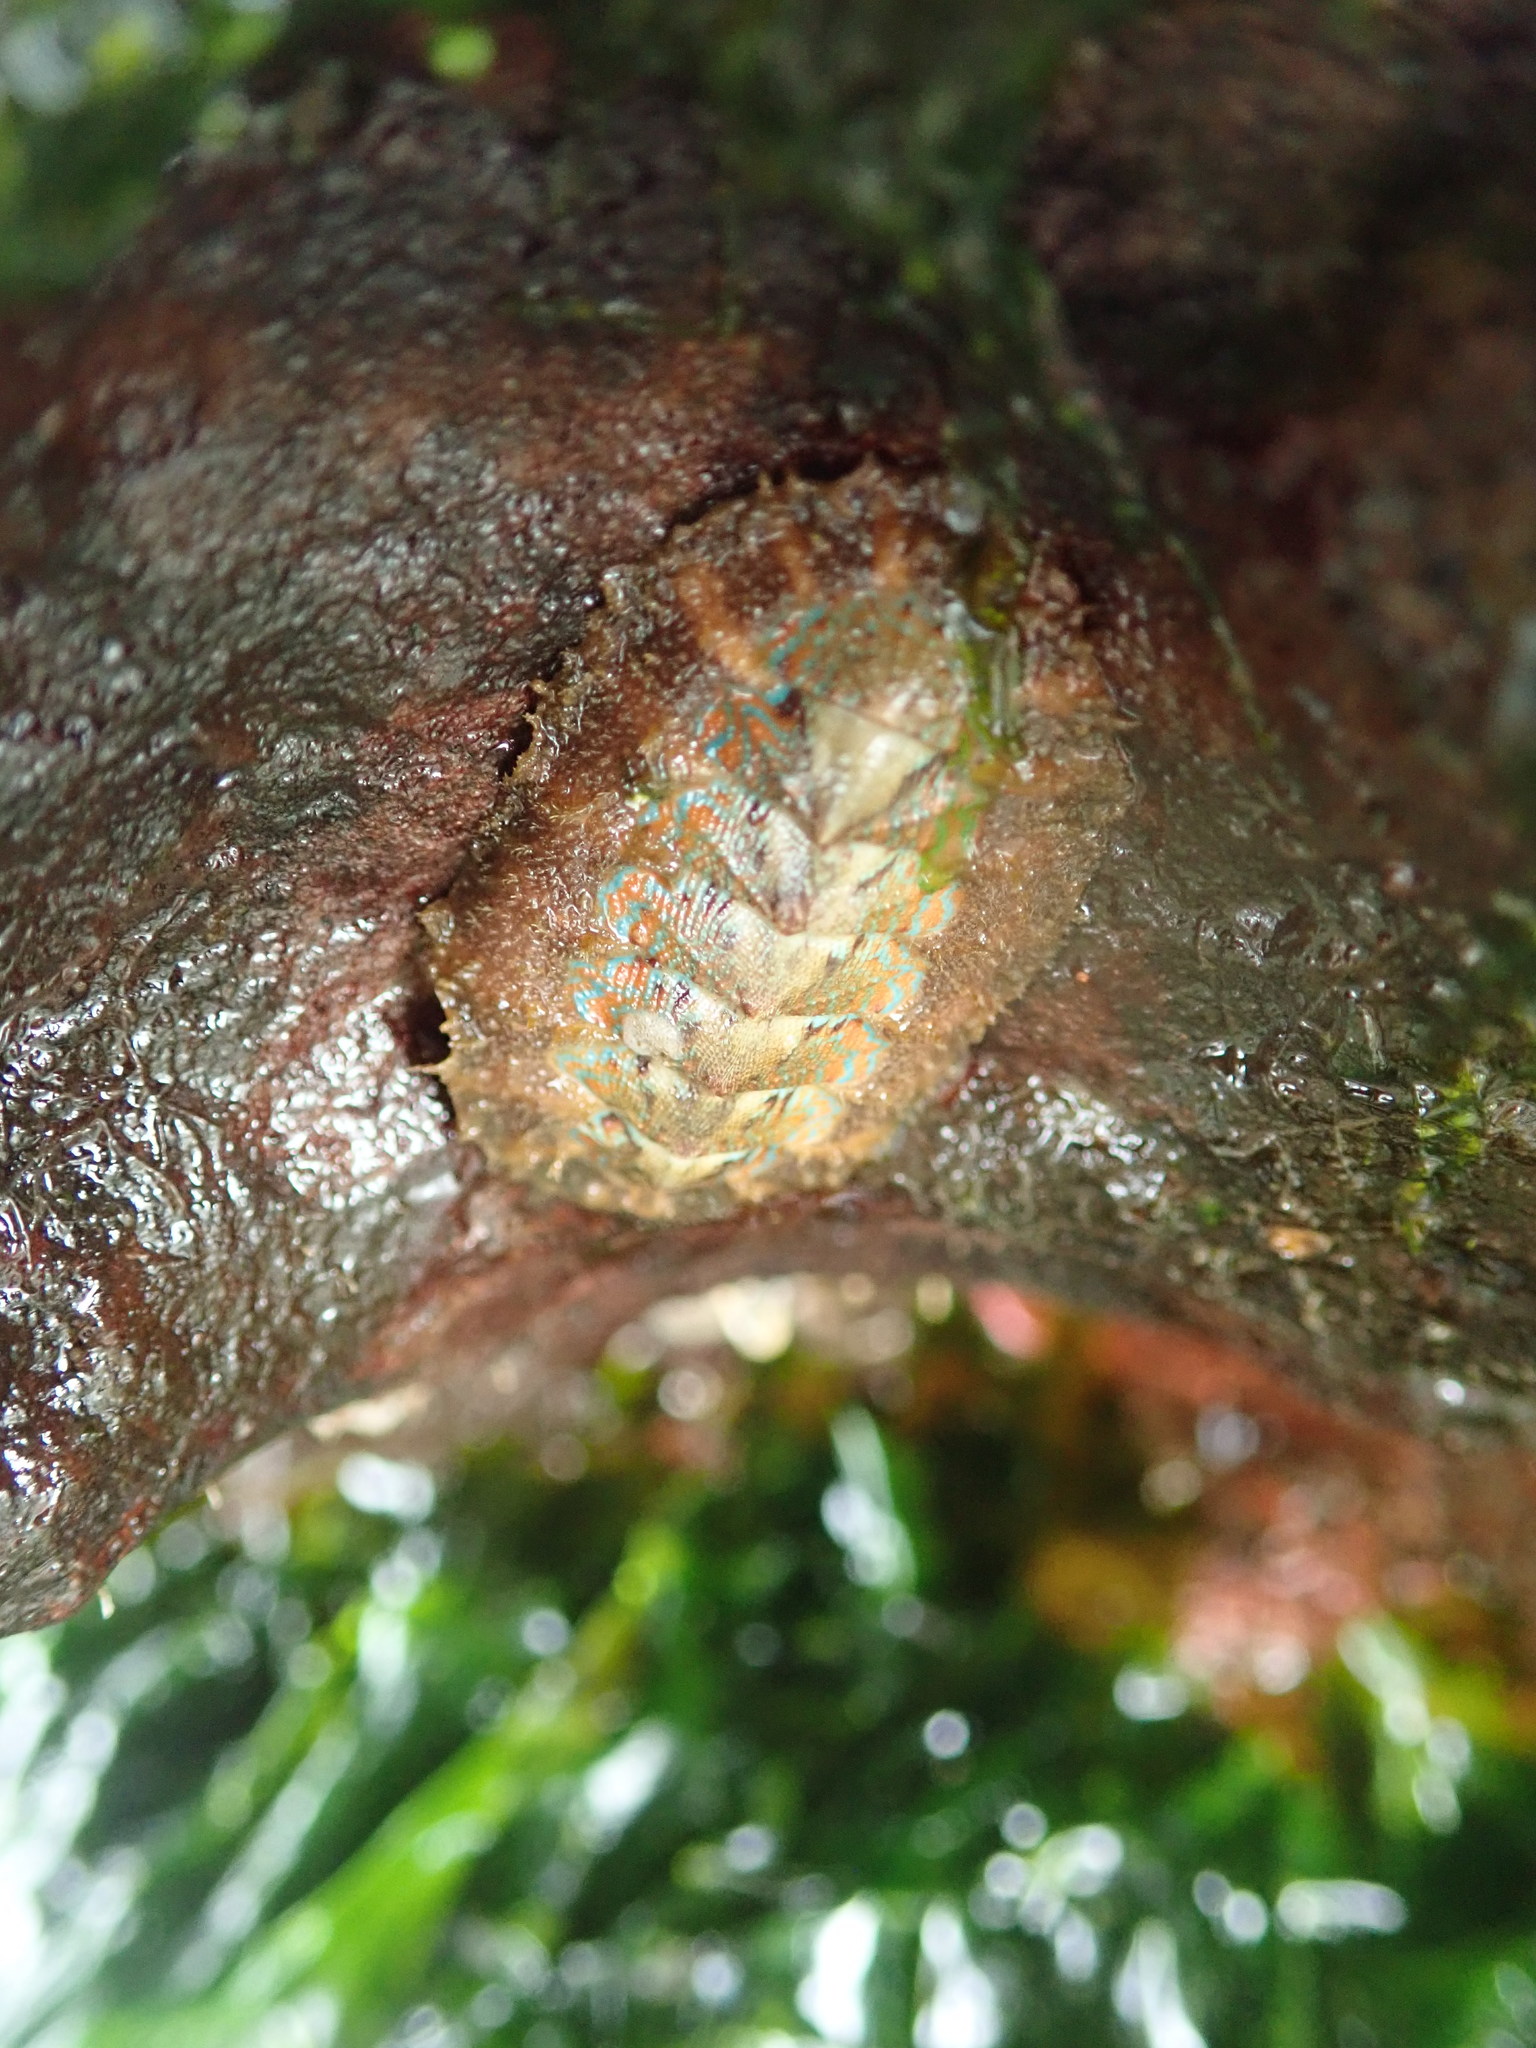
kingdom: Animalia
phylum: Mollusca
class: Polyplacophora
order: Chitonida
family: Mopaliidae
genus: Mopalia
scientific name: Mopalia spectabilis
